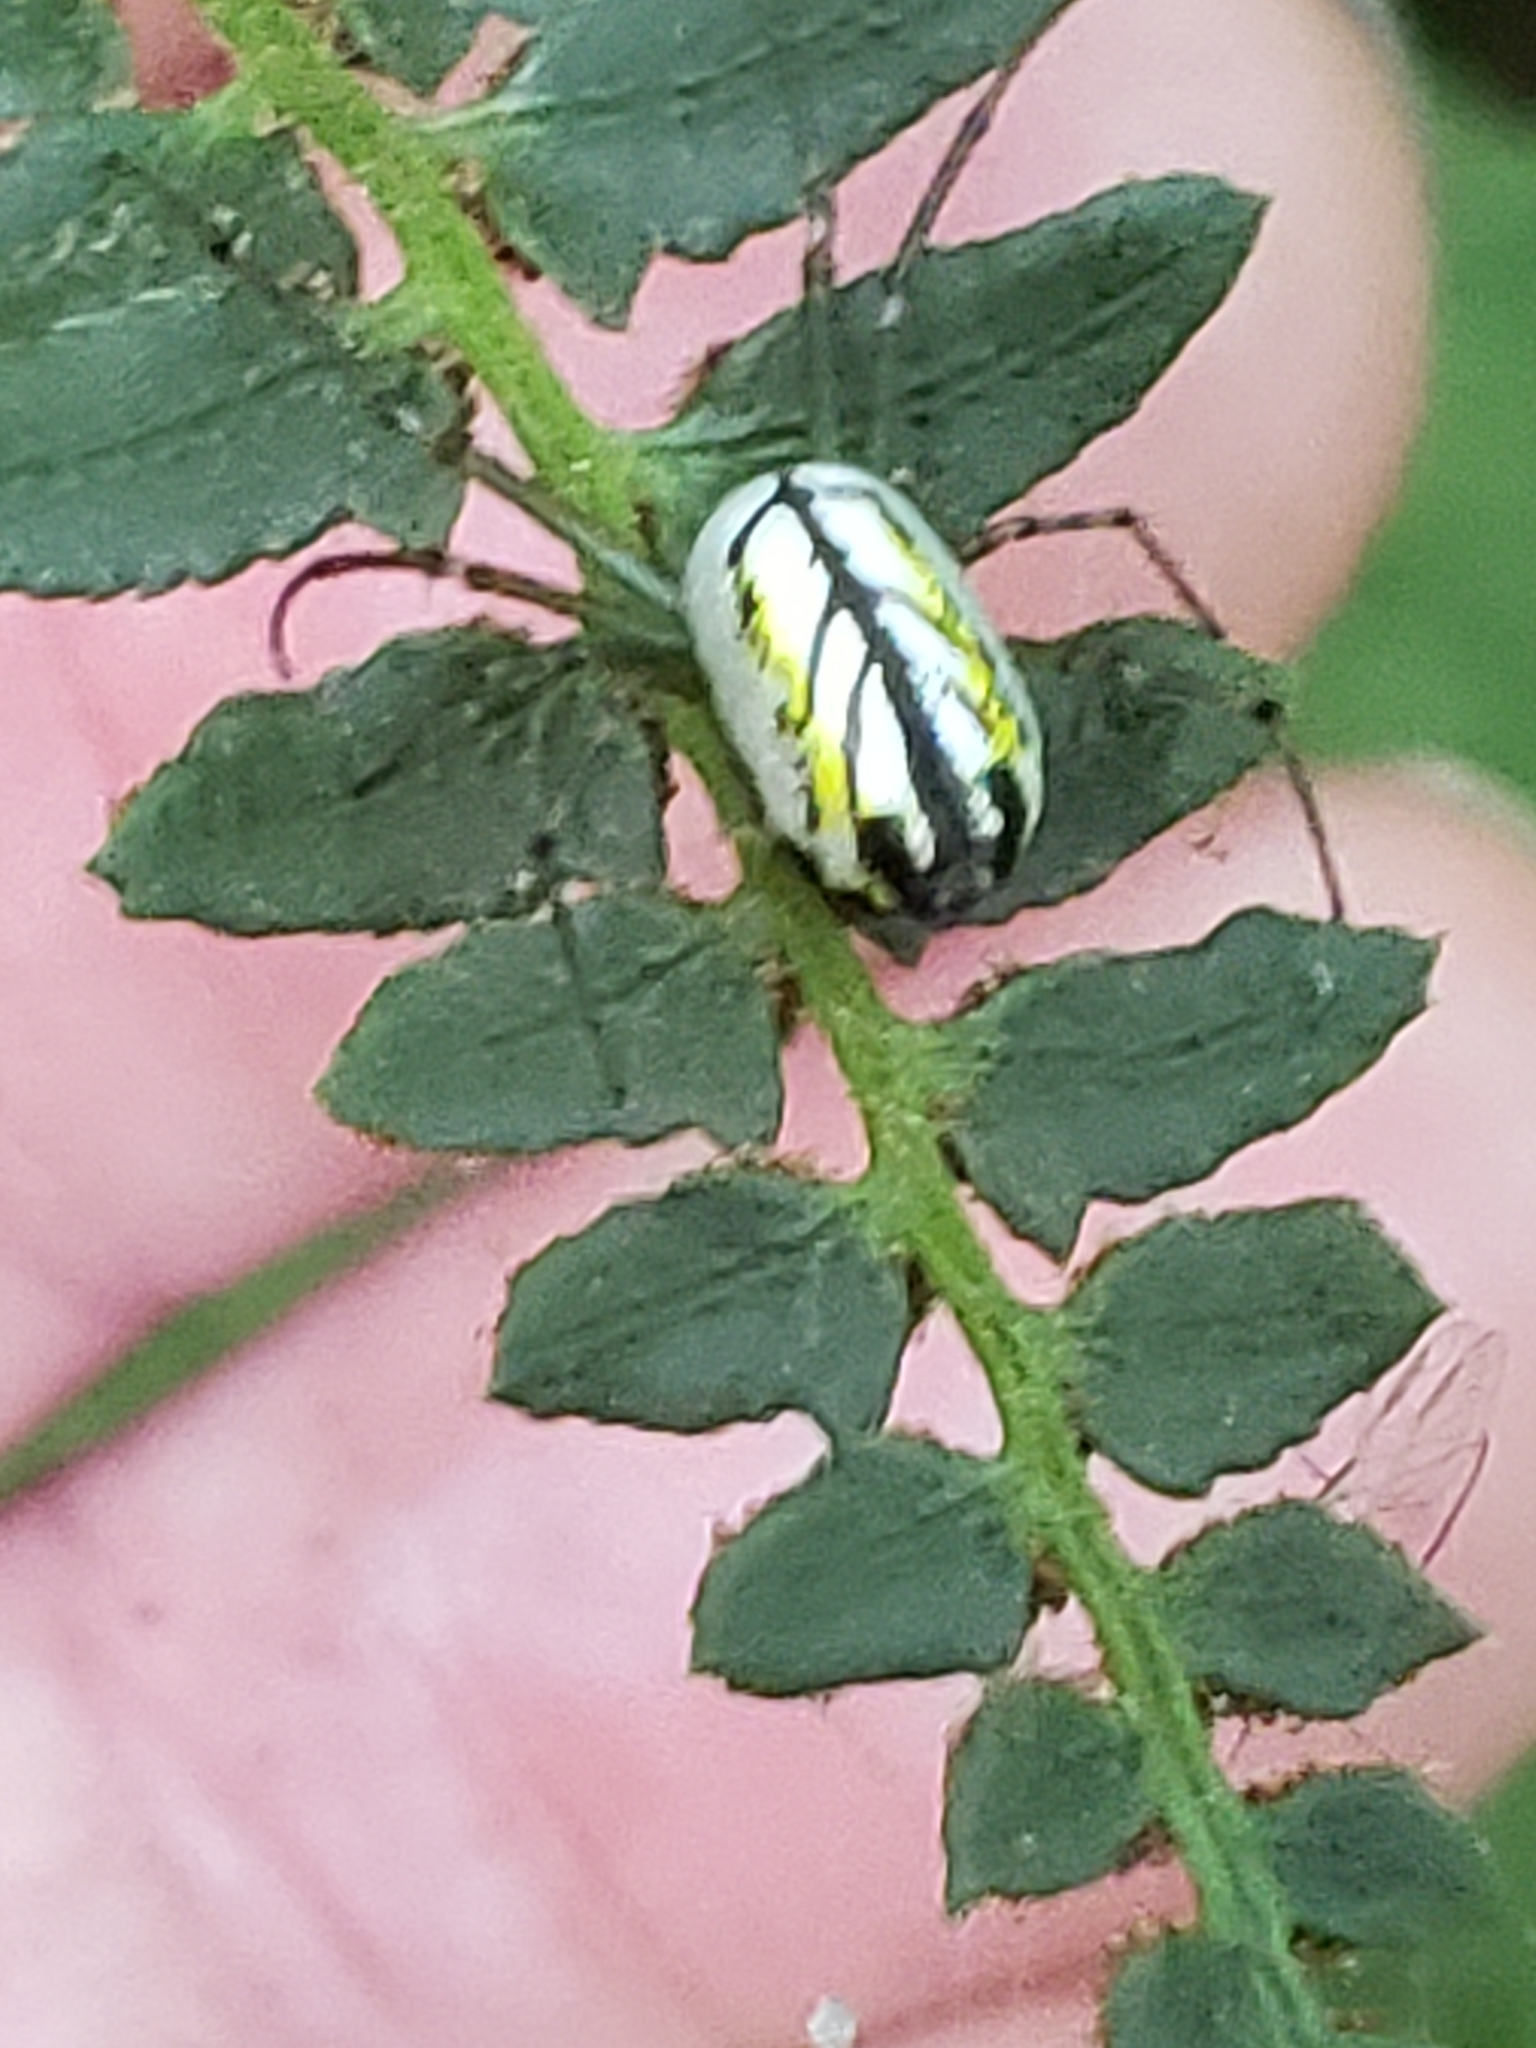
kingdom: Animalia
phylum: Arthropoda
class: Arachnida
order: Araneae
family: Tetragnathidae
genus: Leucauge
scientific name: Leucauge venusta
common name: Longjawed orb weavers
